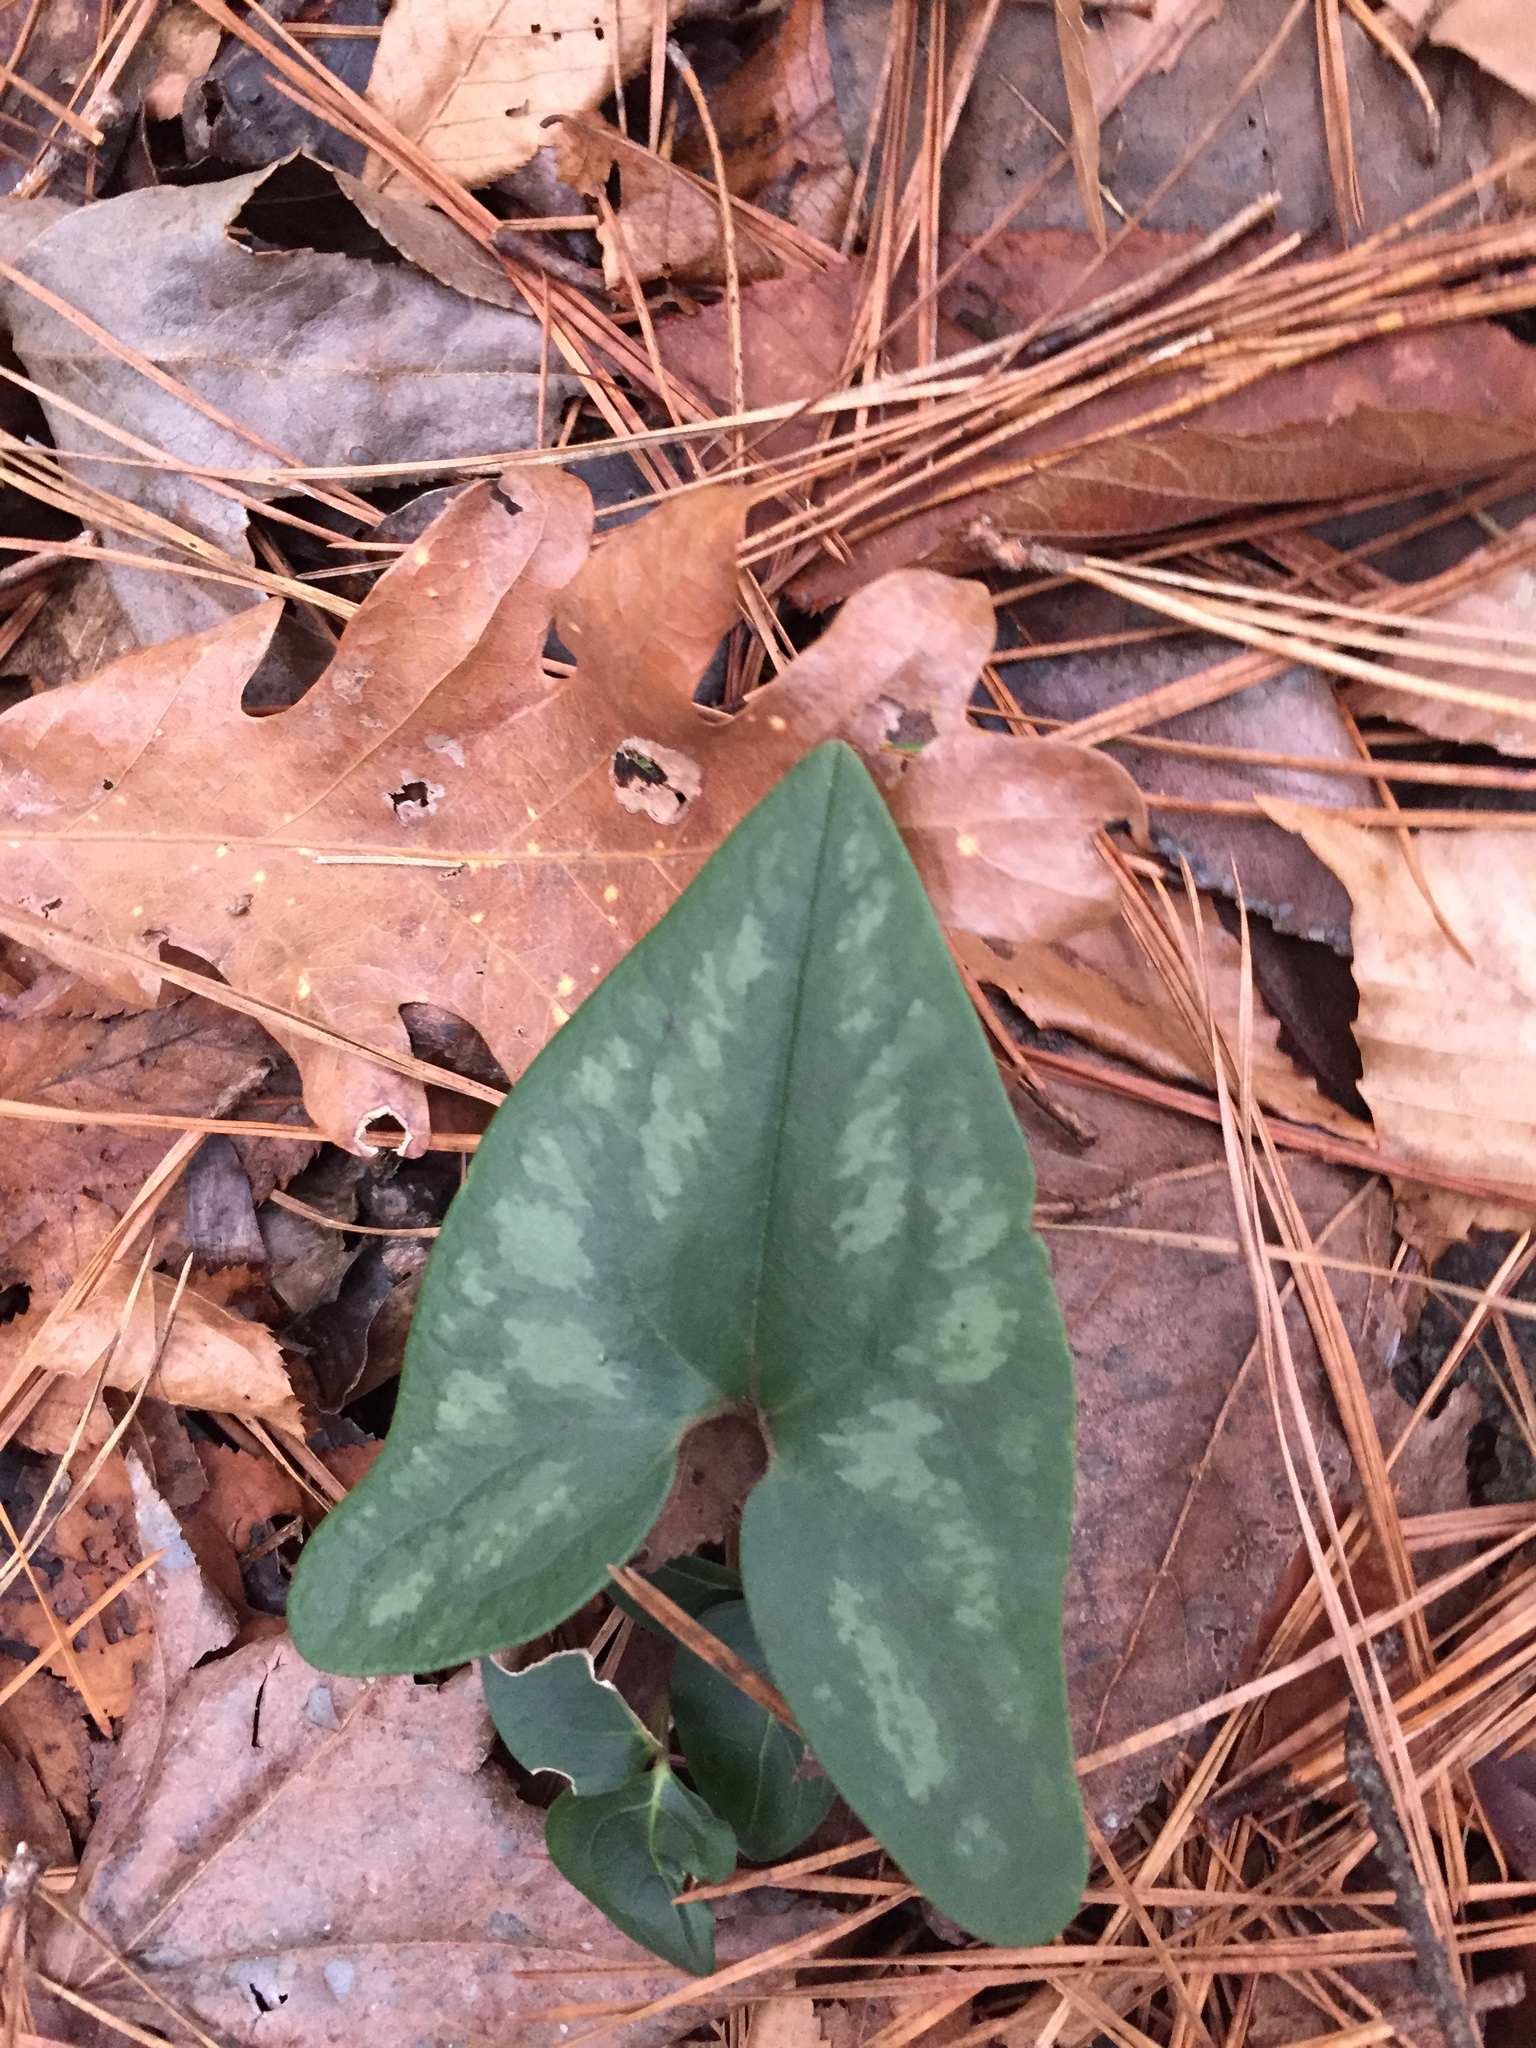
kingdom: Plantae
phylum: Tracheophyta
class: Magnoliopsida
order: Piperales
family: Aristolochiaceae
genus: Hexastylis
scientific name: Hexastylis arifolia
